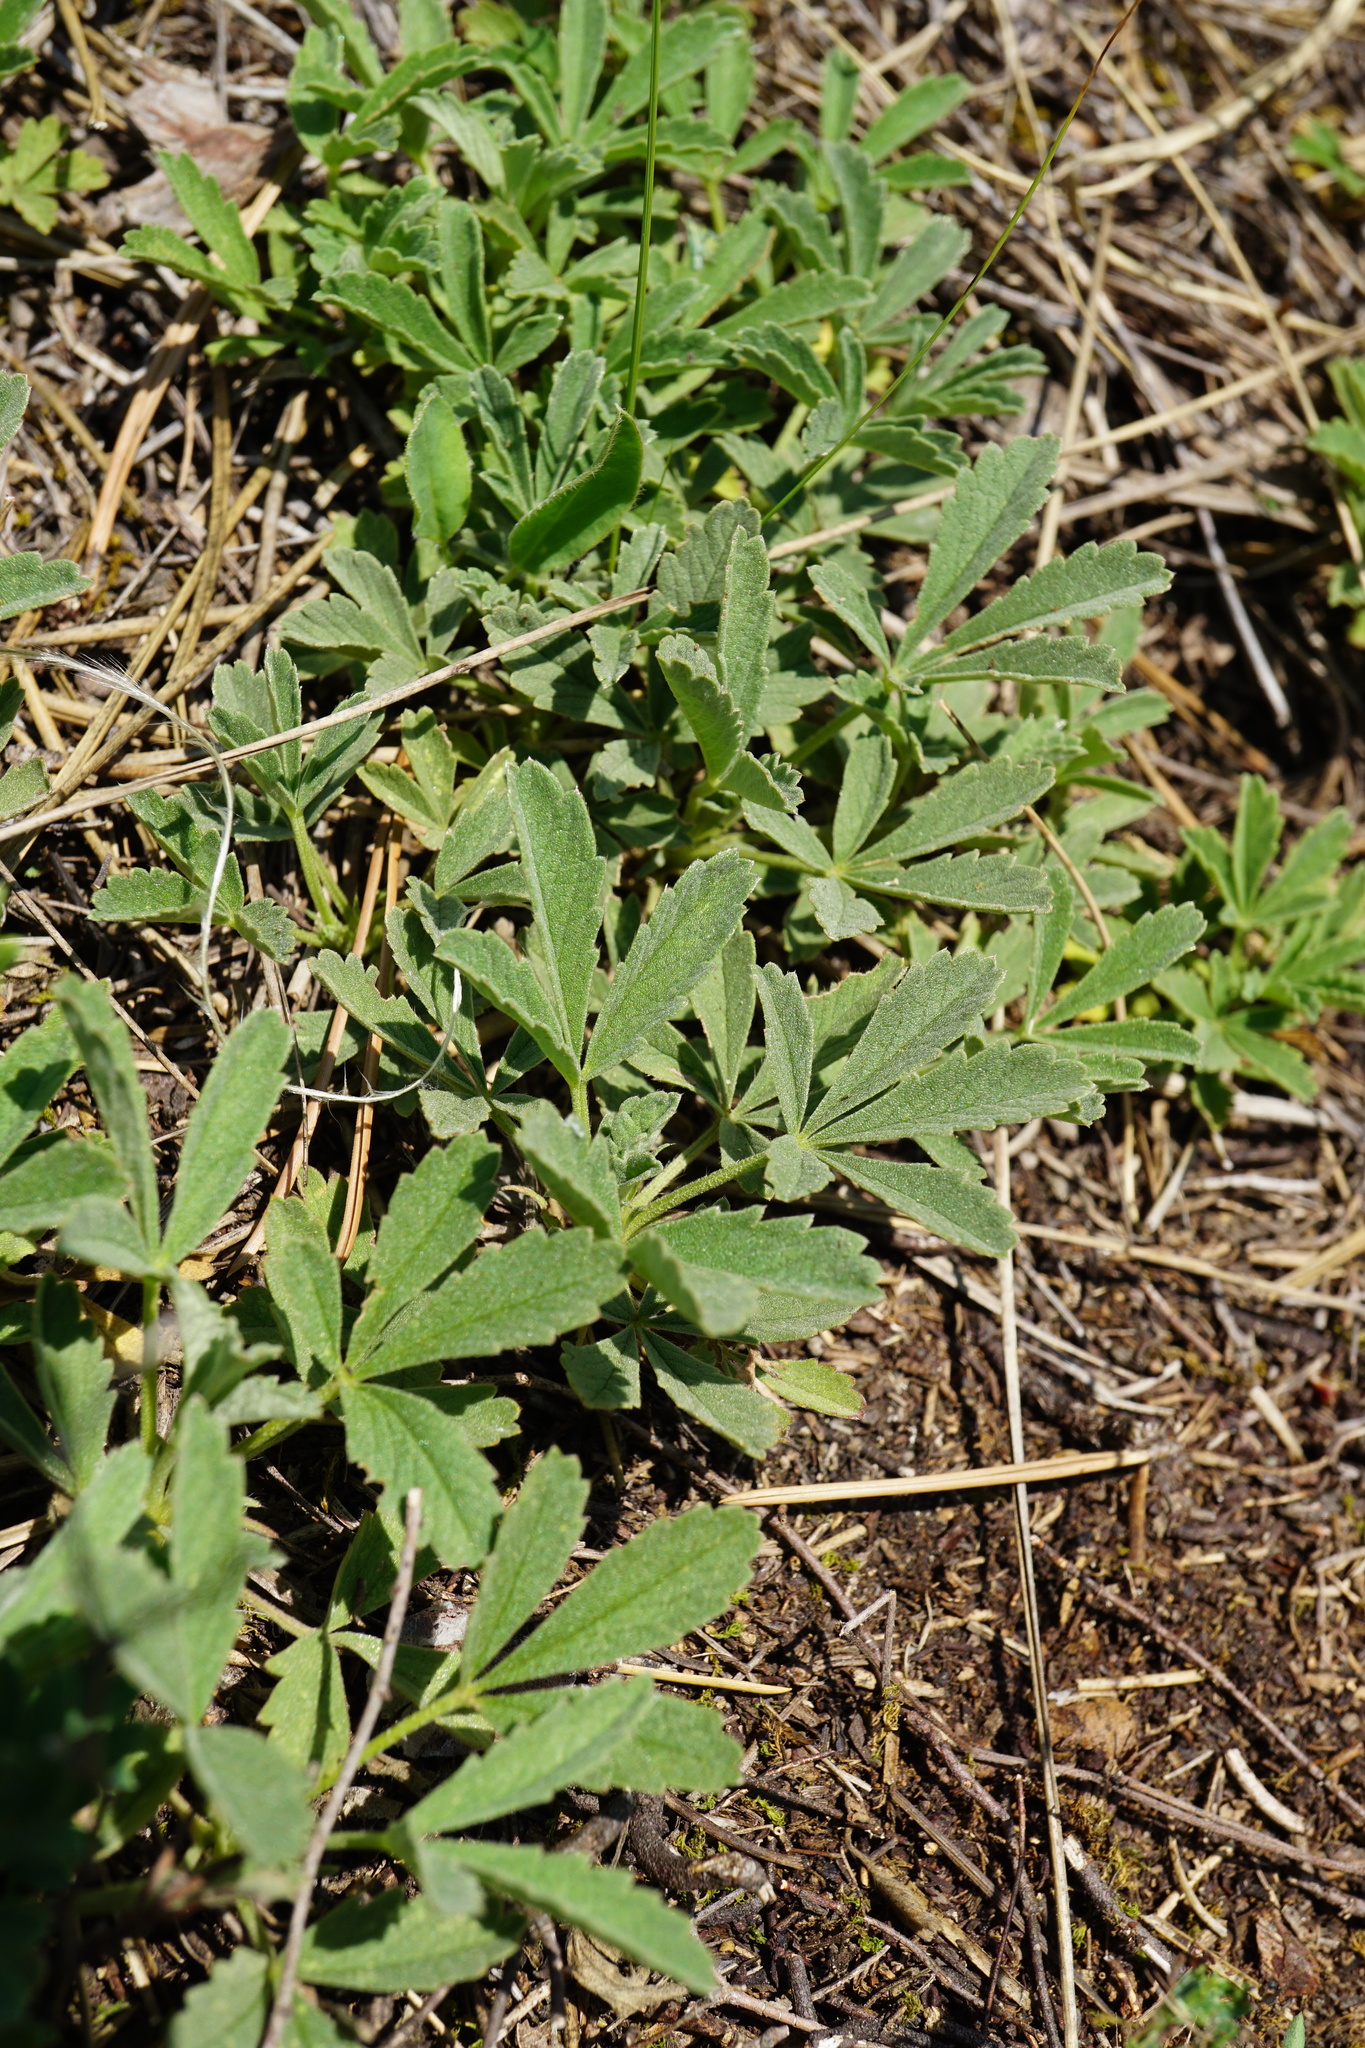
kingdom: Plantae
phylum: Tracheophyta
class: Magnoliopsida
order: Rosales
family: Rosaceae
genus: Potentilla
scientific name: Potentilla incana
